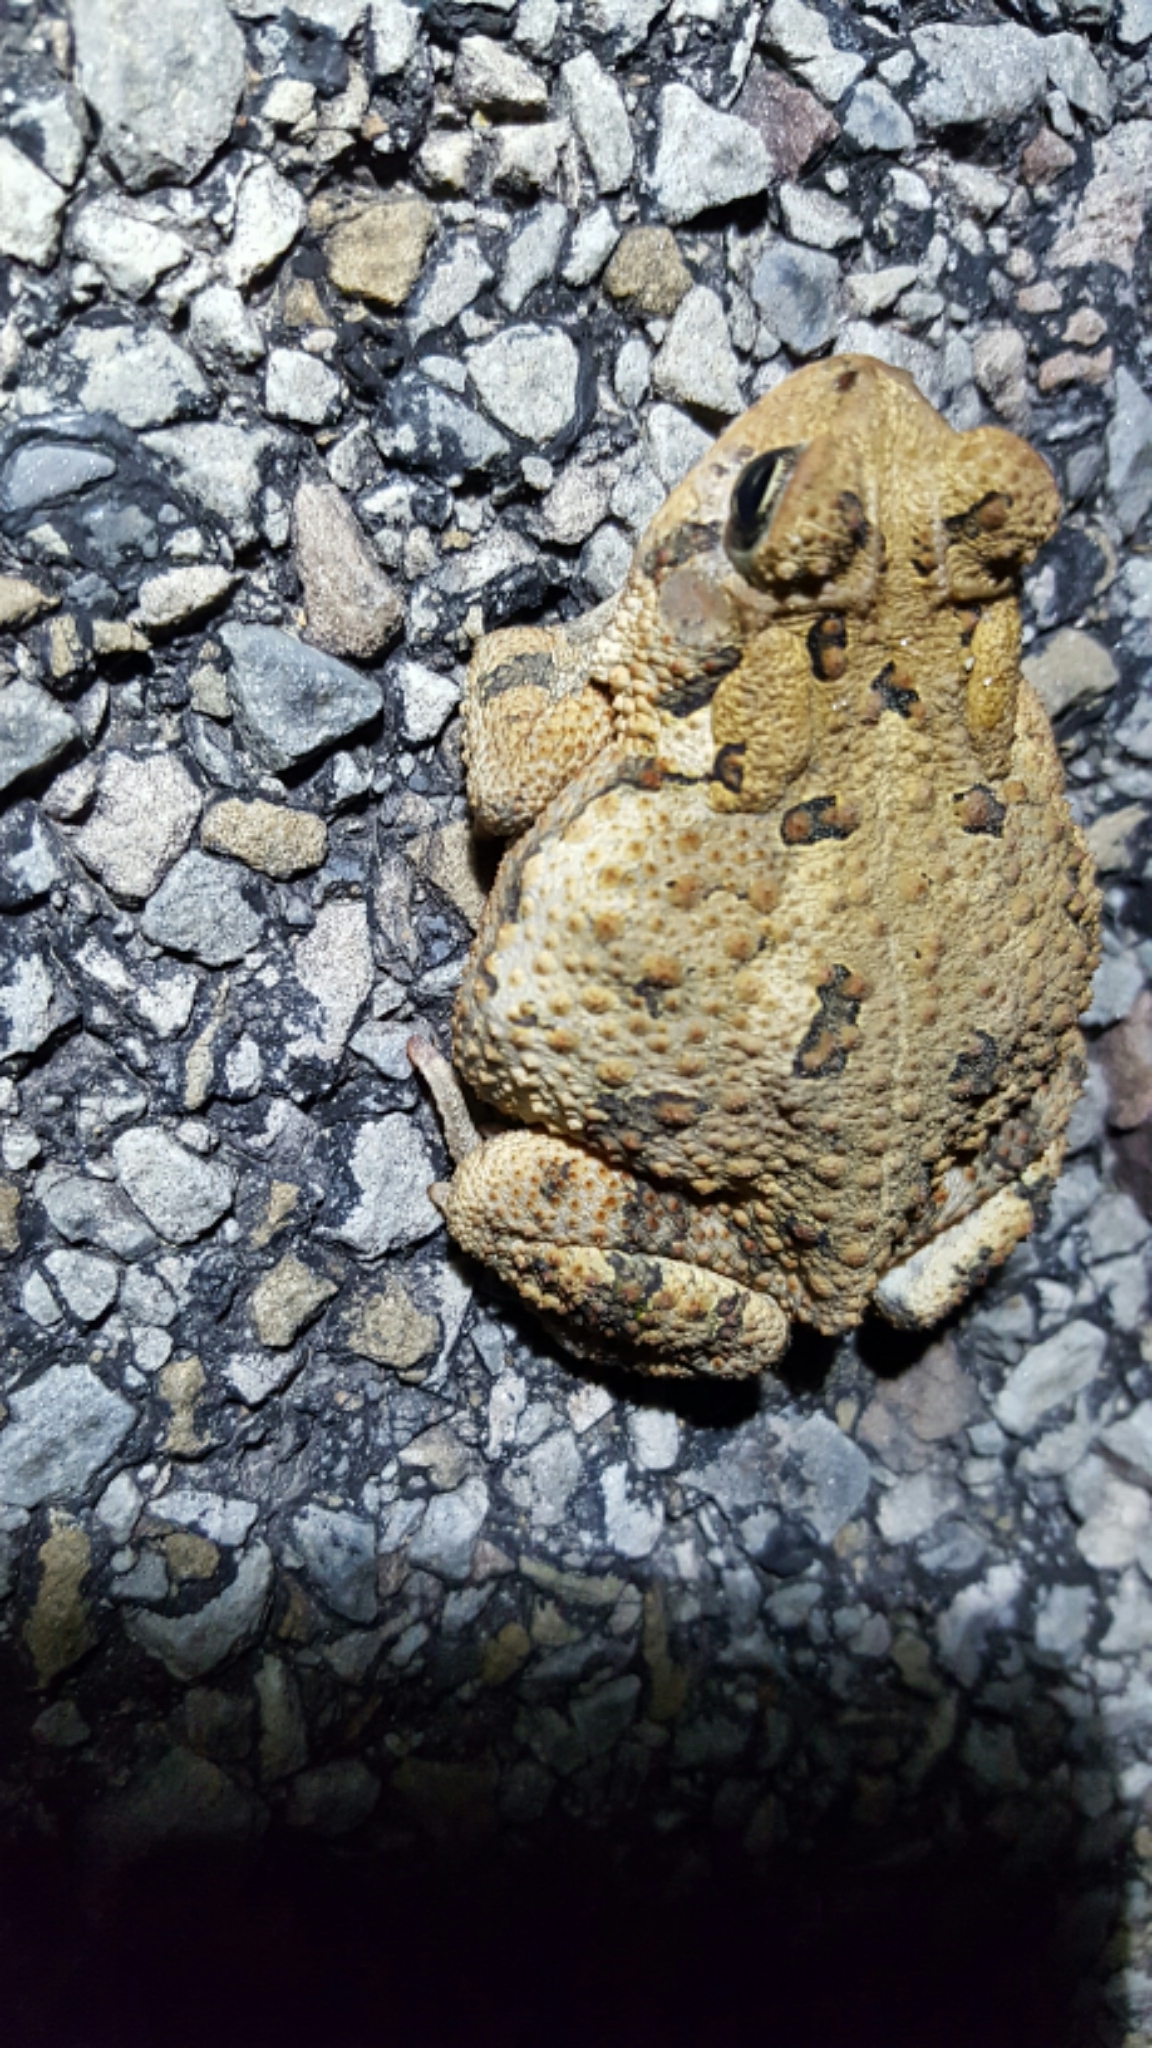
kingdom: Animalia
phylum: Chordata
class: Amphibia
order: Anura
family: Bufonidae
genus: Anaxyrus
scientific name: Anaxyrus fowleri
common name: Fowler's toad
